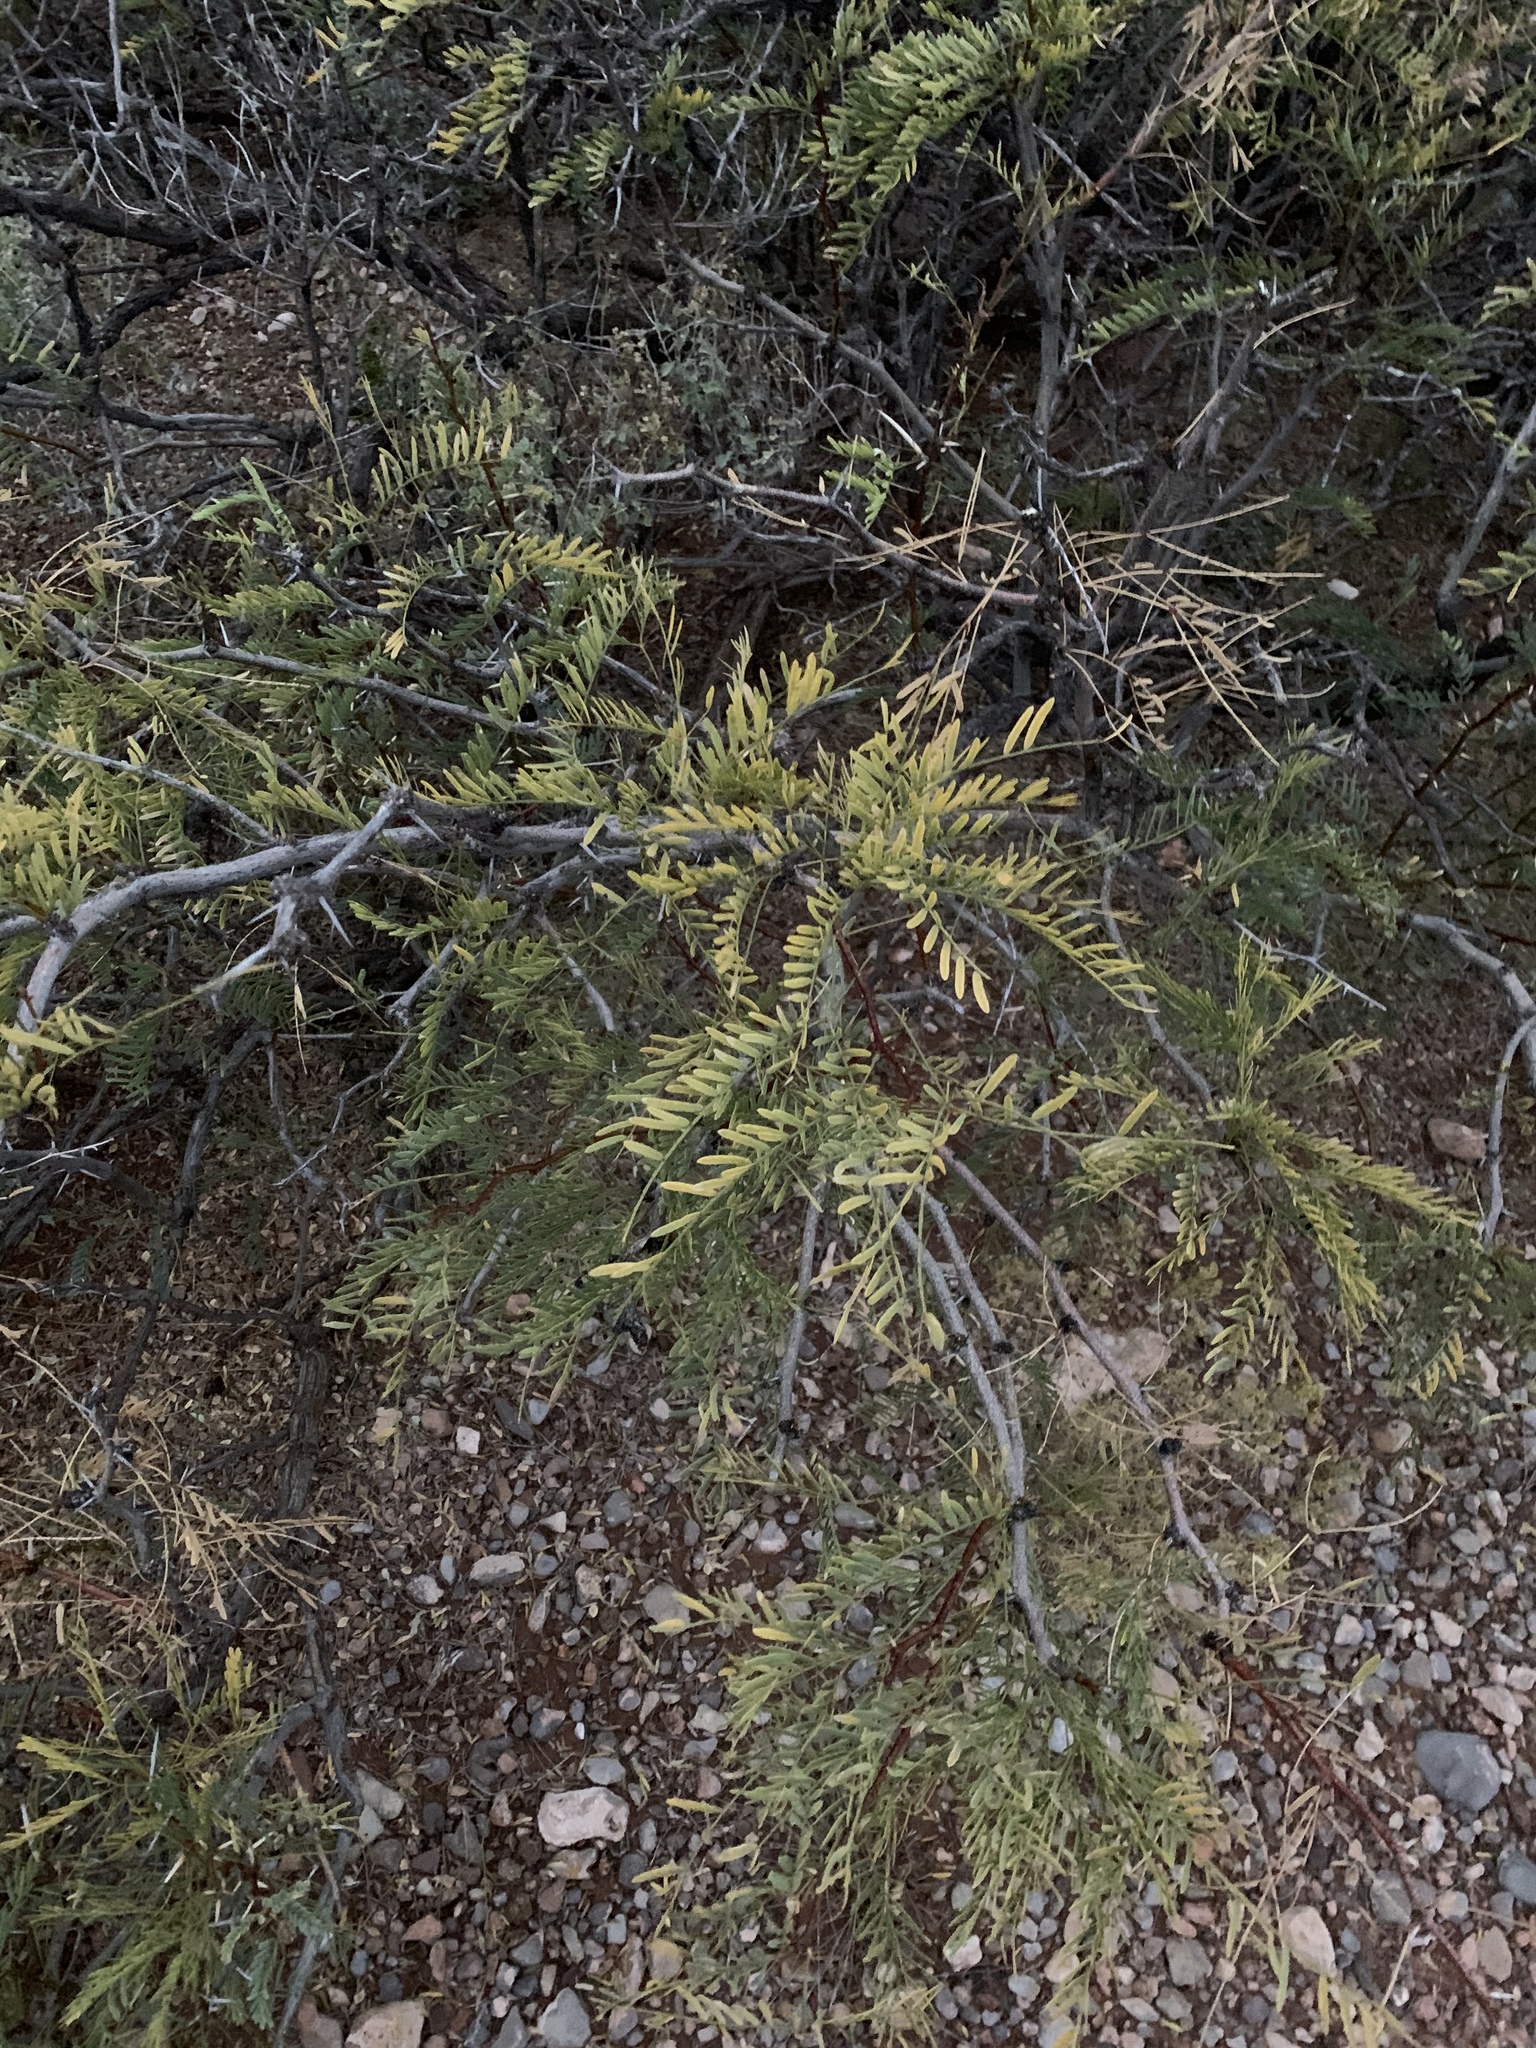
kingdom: Plantae
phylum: Tracheophyta
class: Magnoliopsida
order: Fabales
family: Fabaceae
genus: Prosopis
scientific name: Prosopis glandulosa
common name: Honey mesquite
